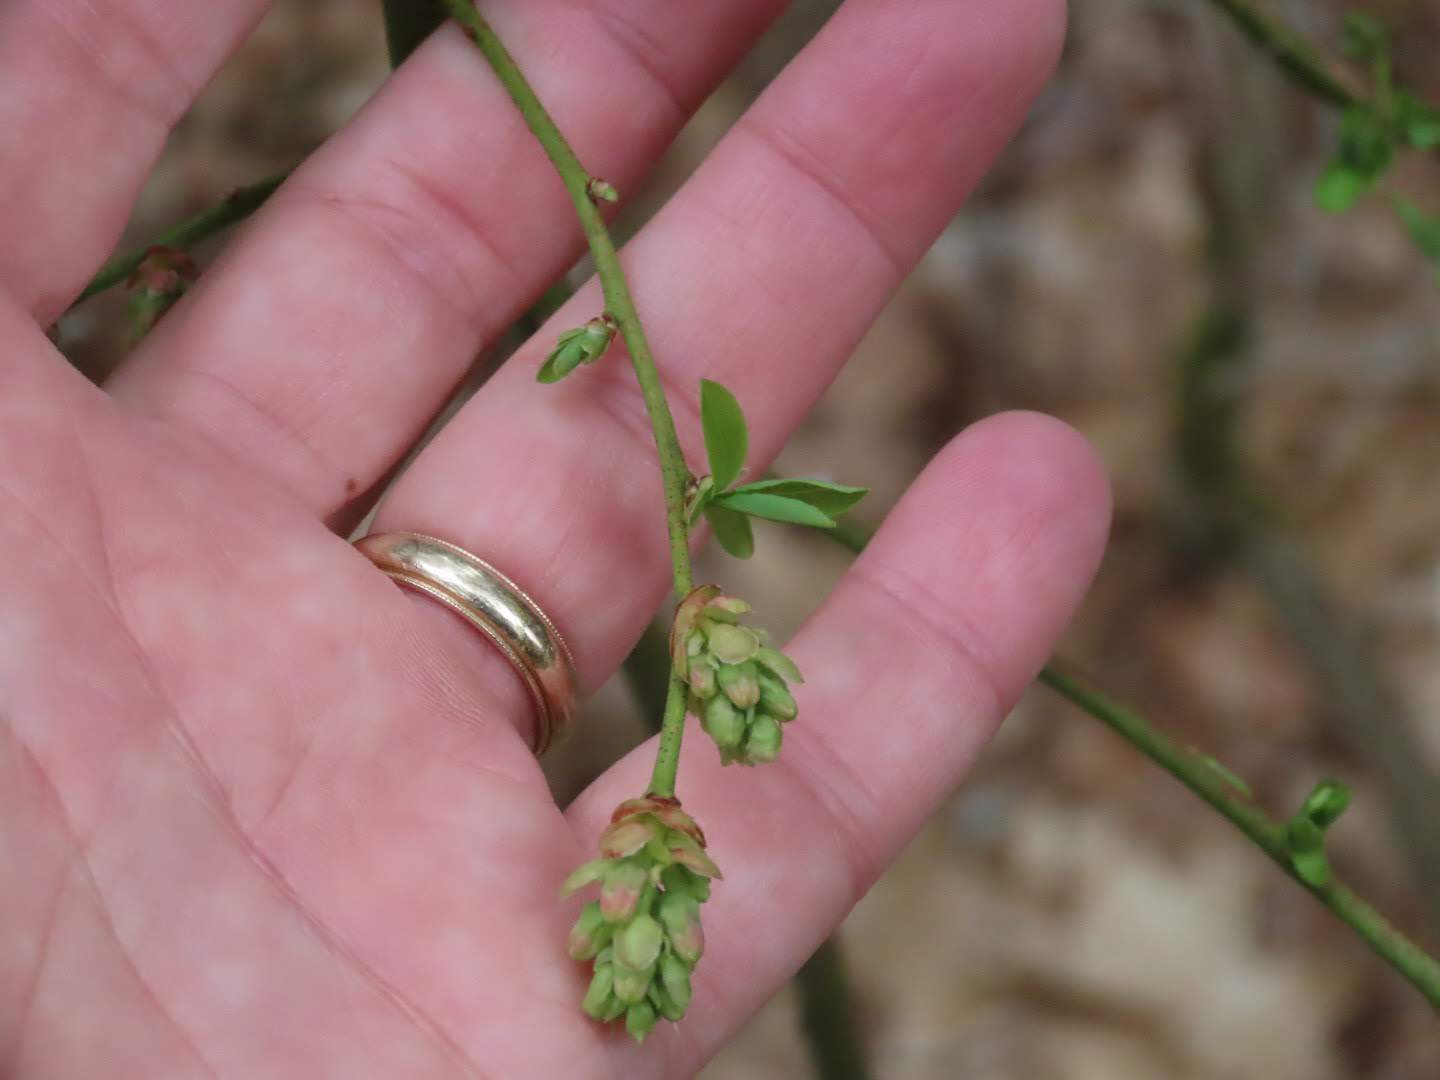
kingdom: Plantae
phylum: Tracheophyta
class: Magnoliopsida
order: Ericales
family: Ericaceae
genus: Vaccinium
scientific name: Vaccinium corymbosum
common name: Blueberry
